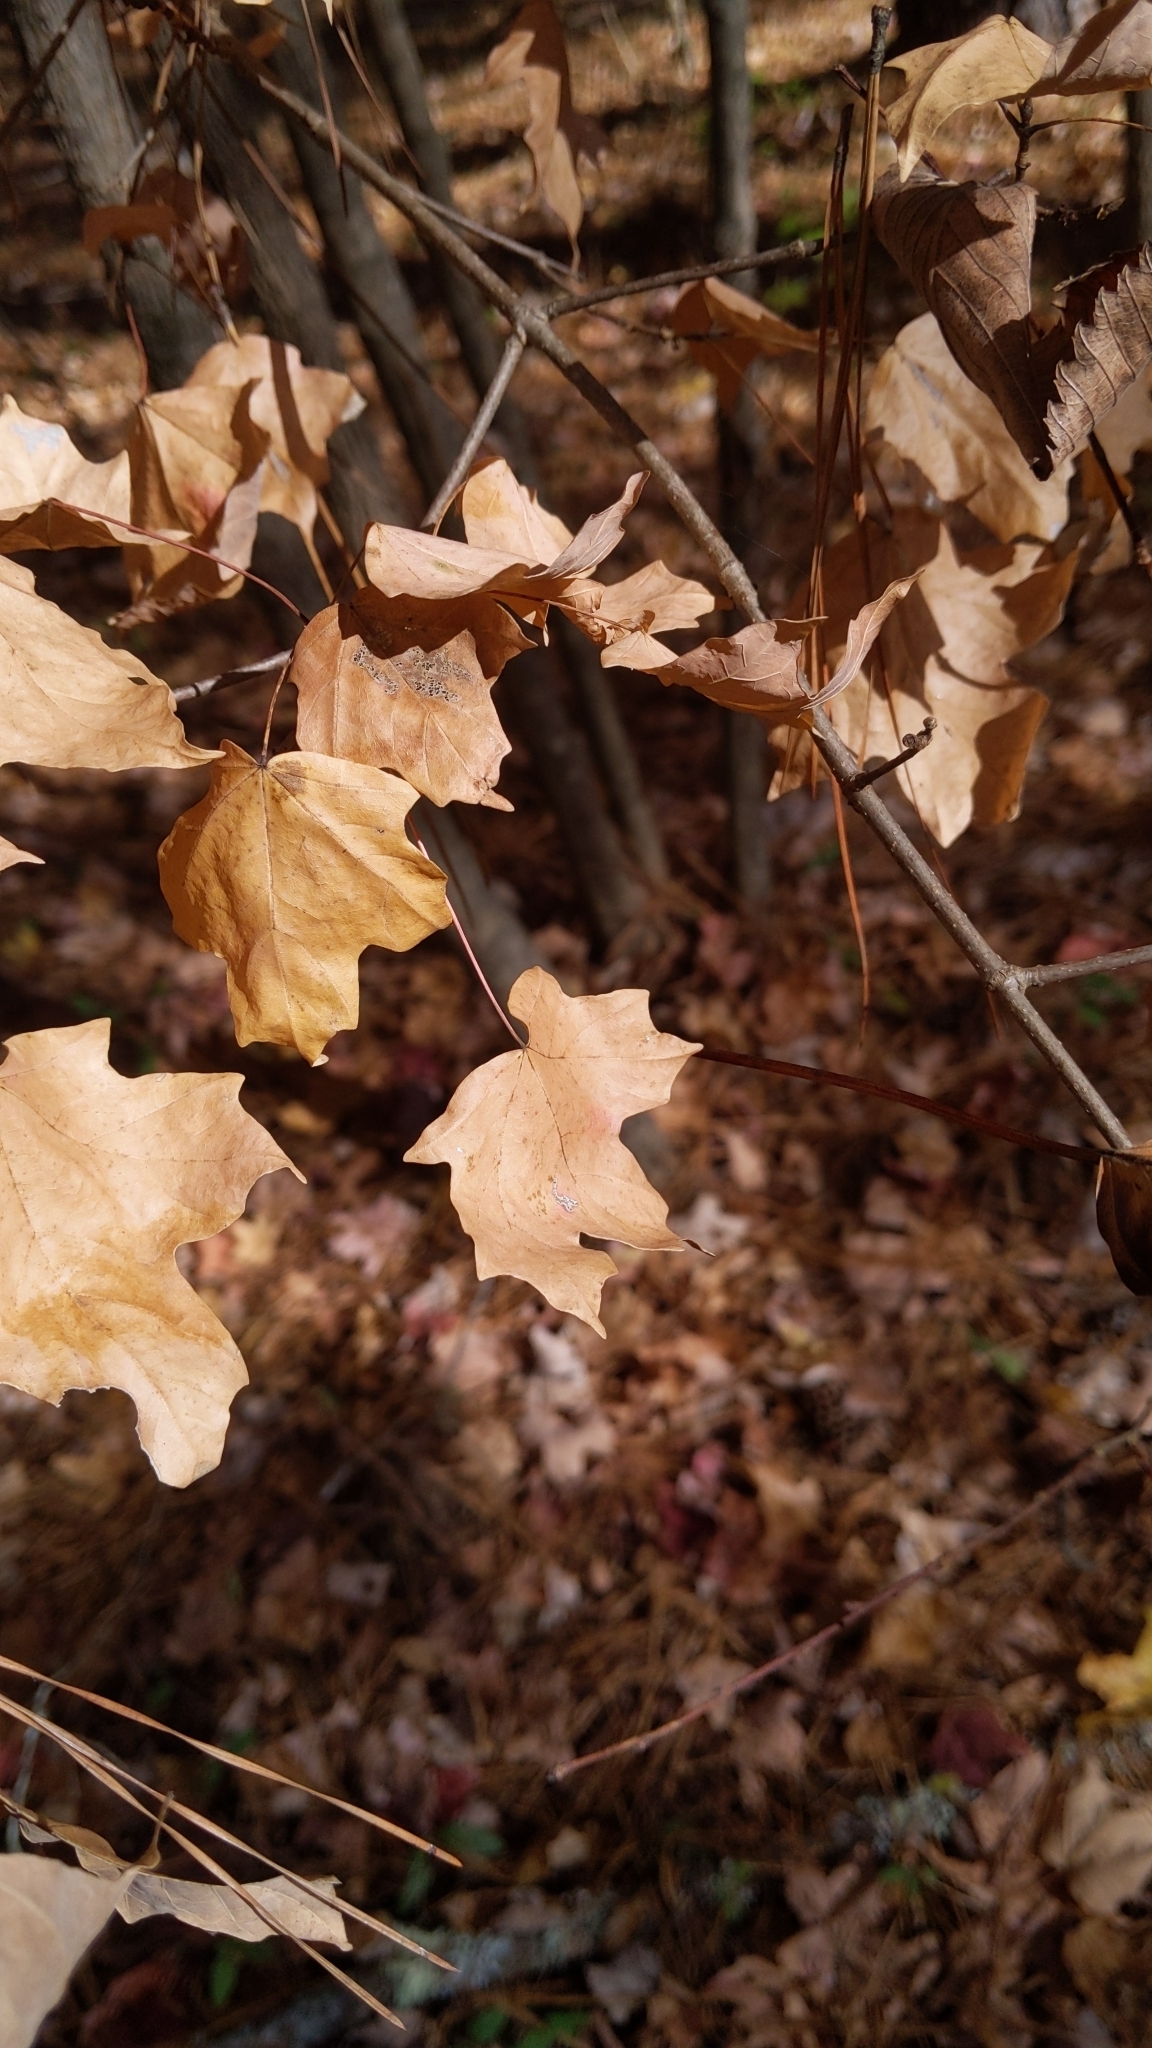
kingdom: Plantae
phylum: Tracheophyta
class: Magnoliopsida
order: Sapindales
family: Sapindaceae
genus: Acer
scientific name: Acer floridanum
